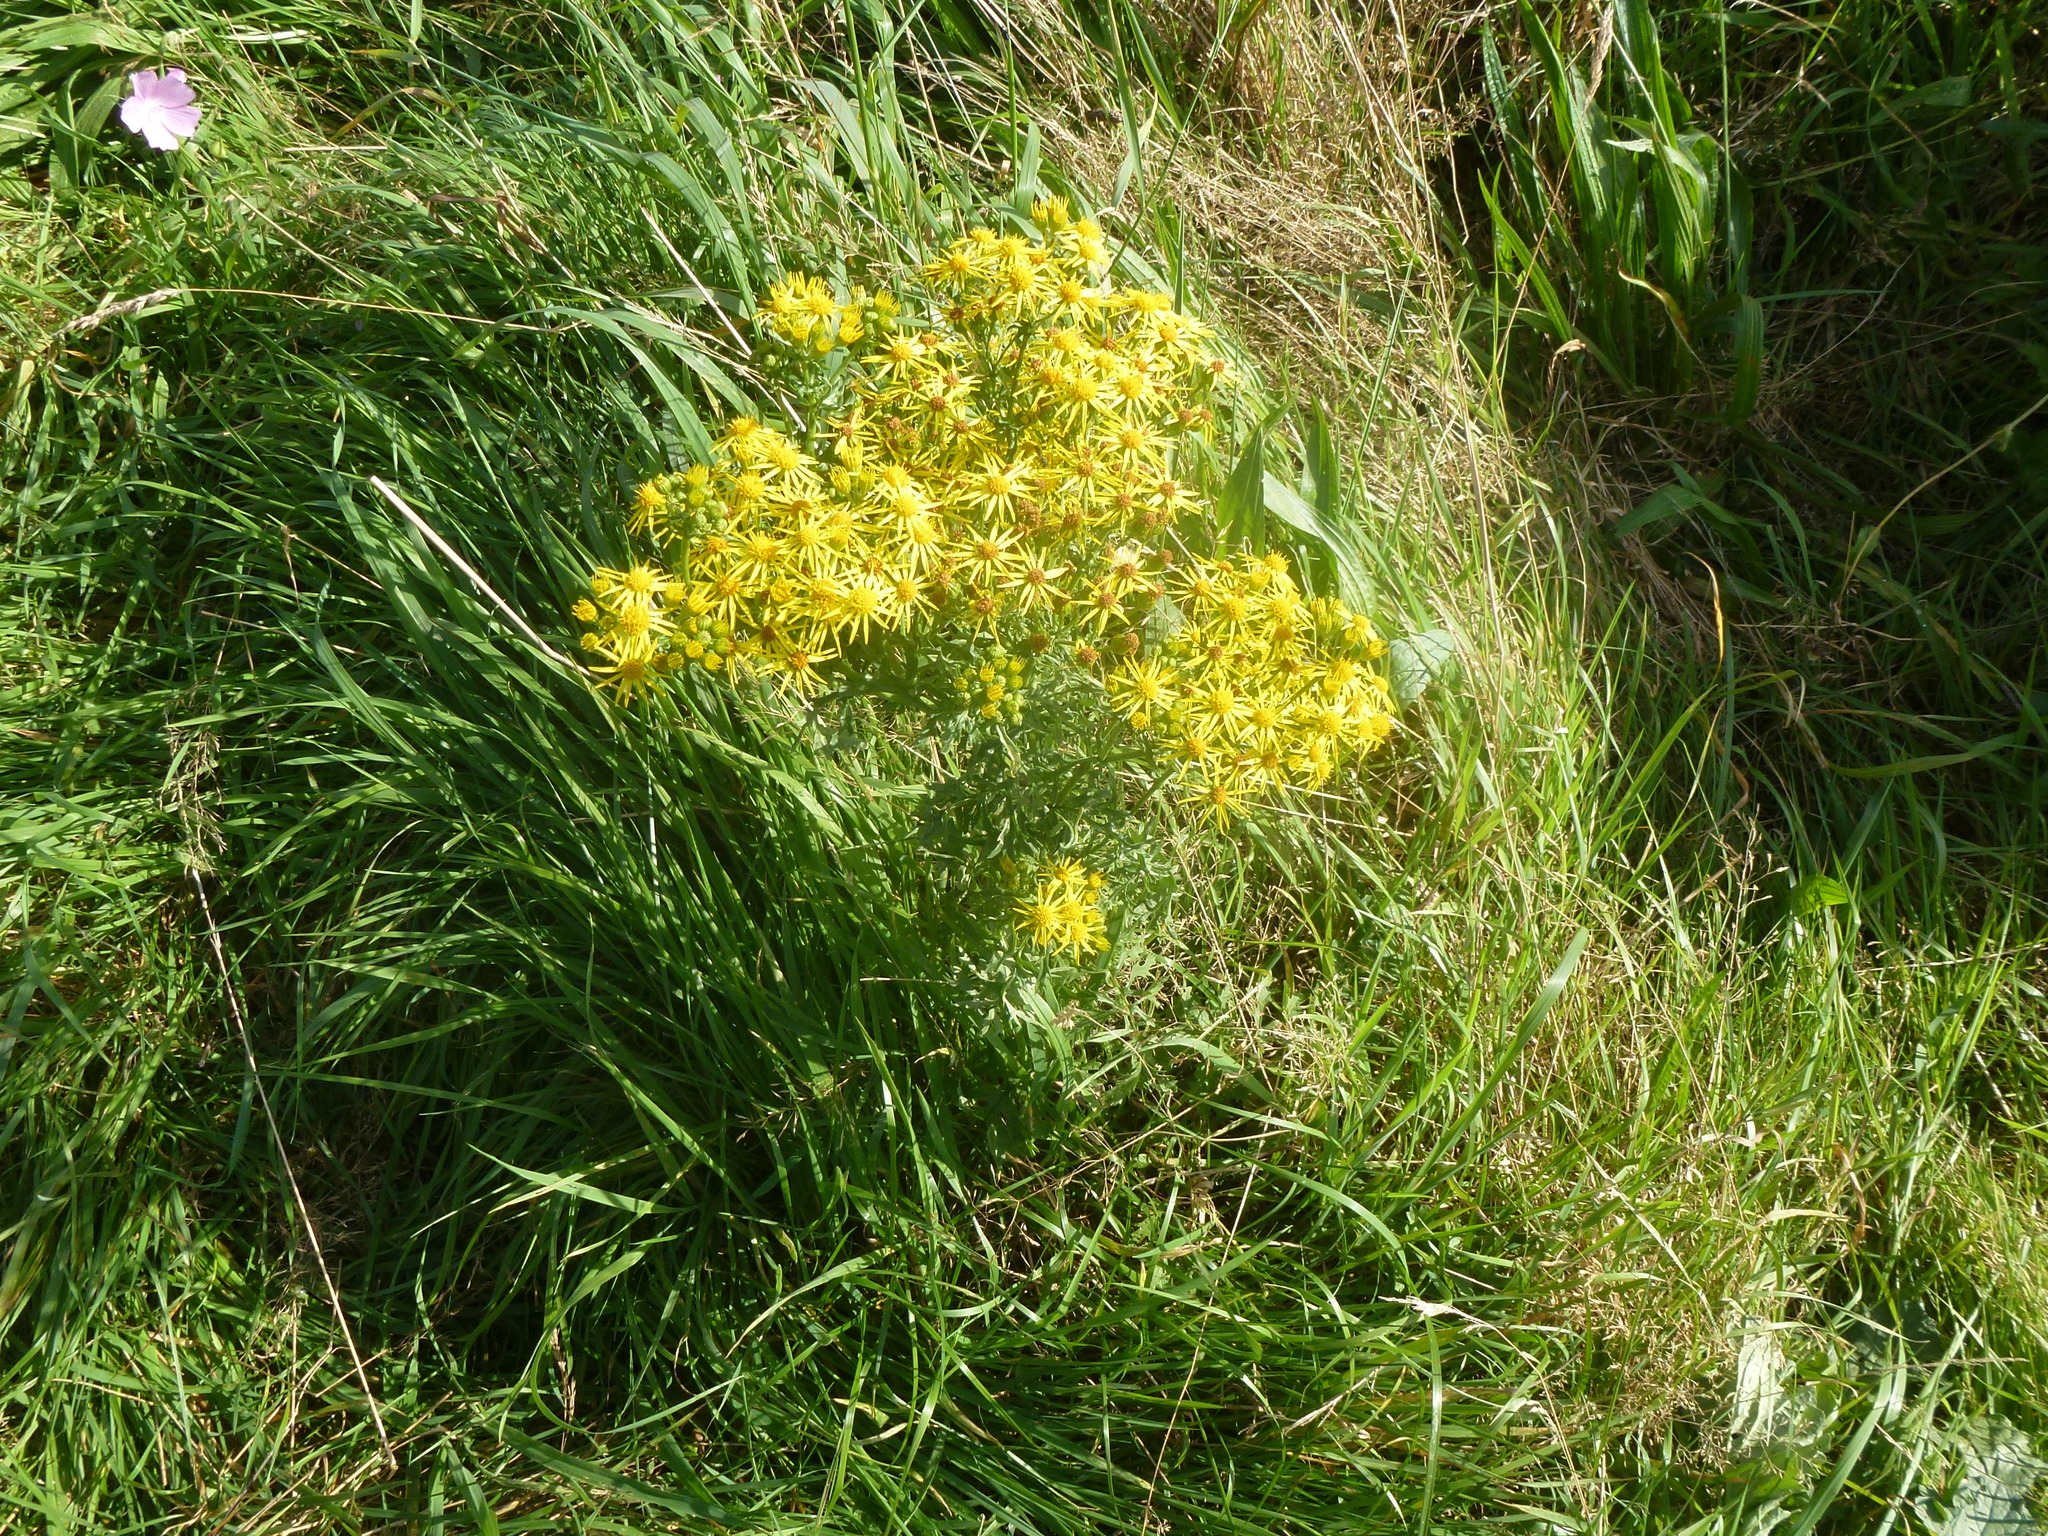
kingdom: Plantae
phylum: Tracheophyta
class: Magnoliopsida
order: Asterales
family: Asteraceae
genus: Jacobaea
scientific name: Jacobaea vulgaris
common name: Stinking willie
